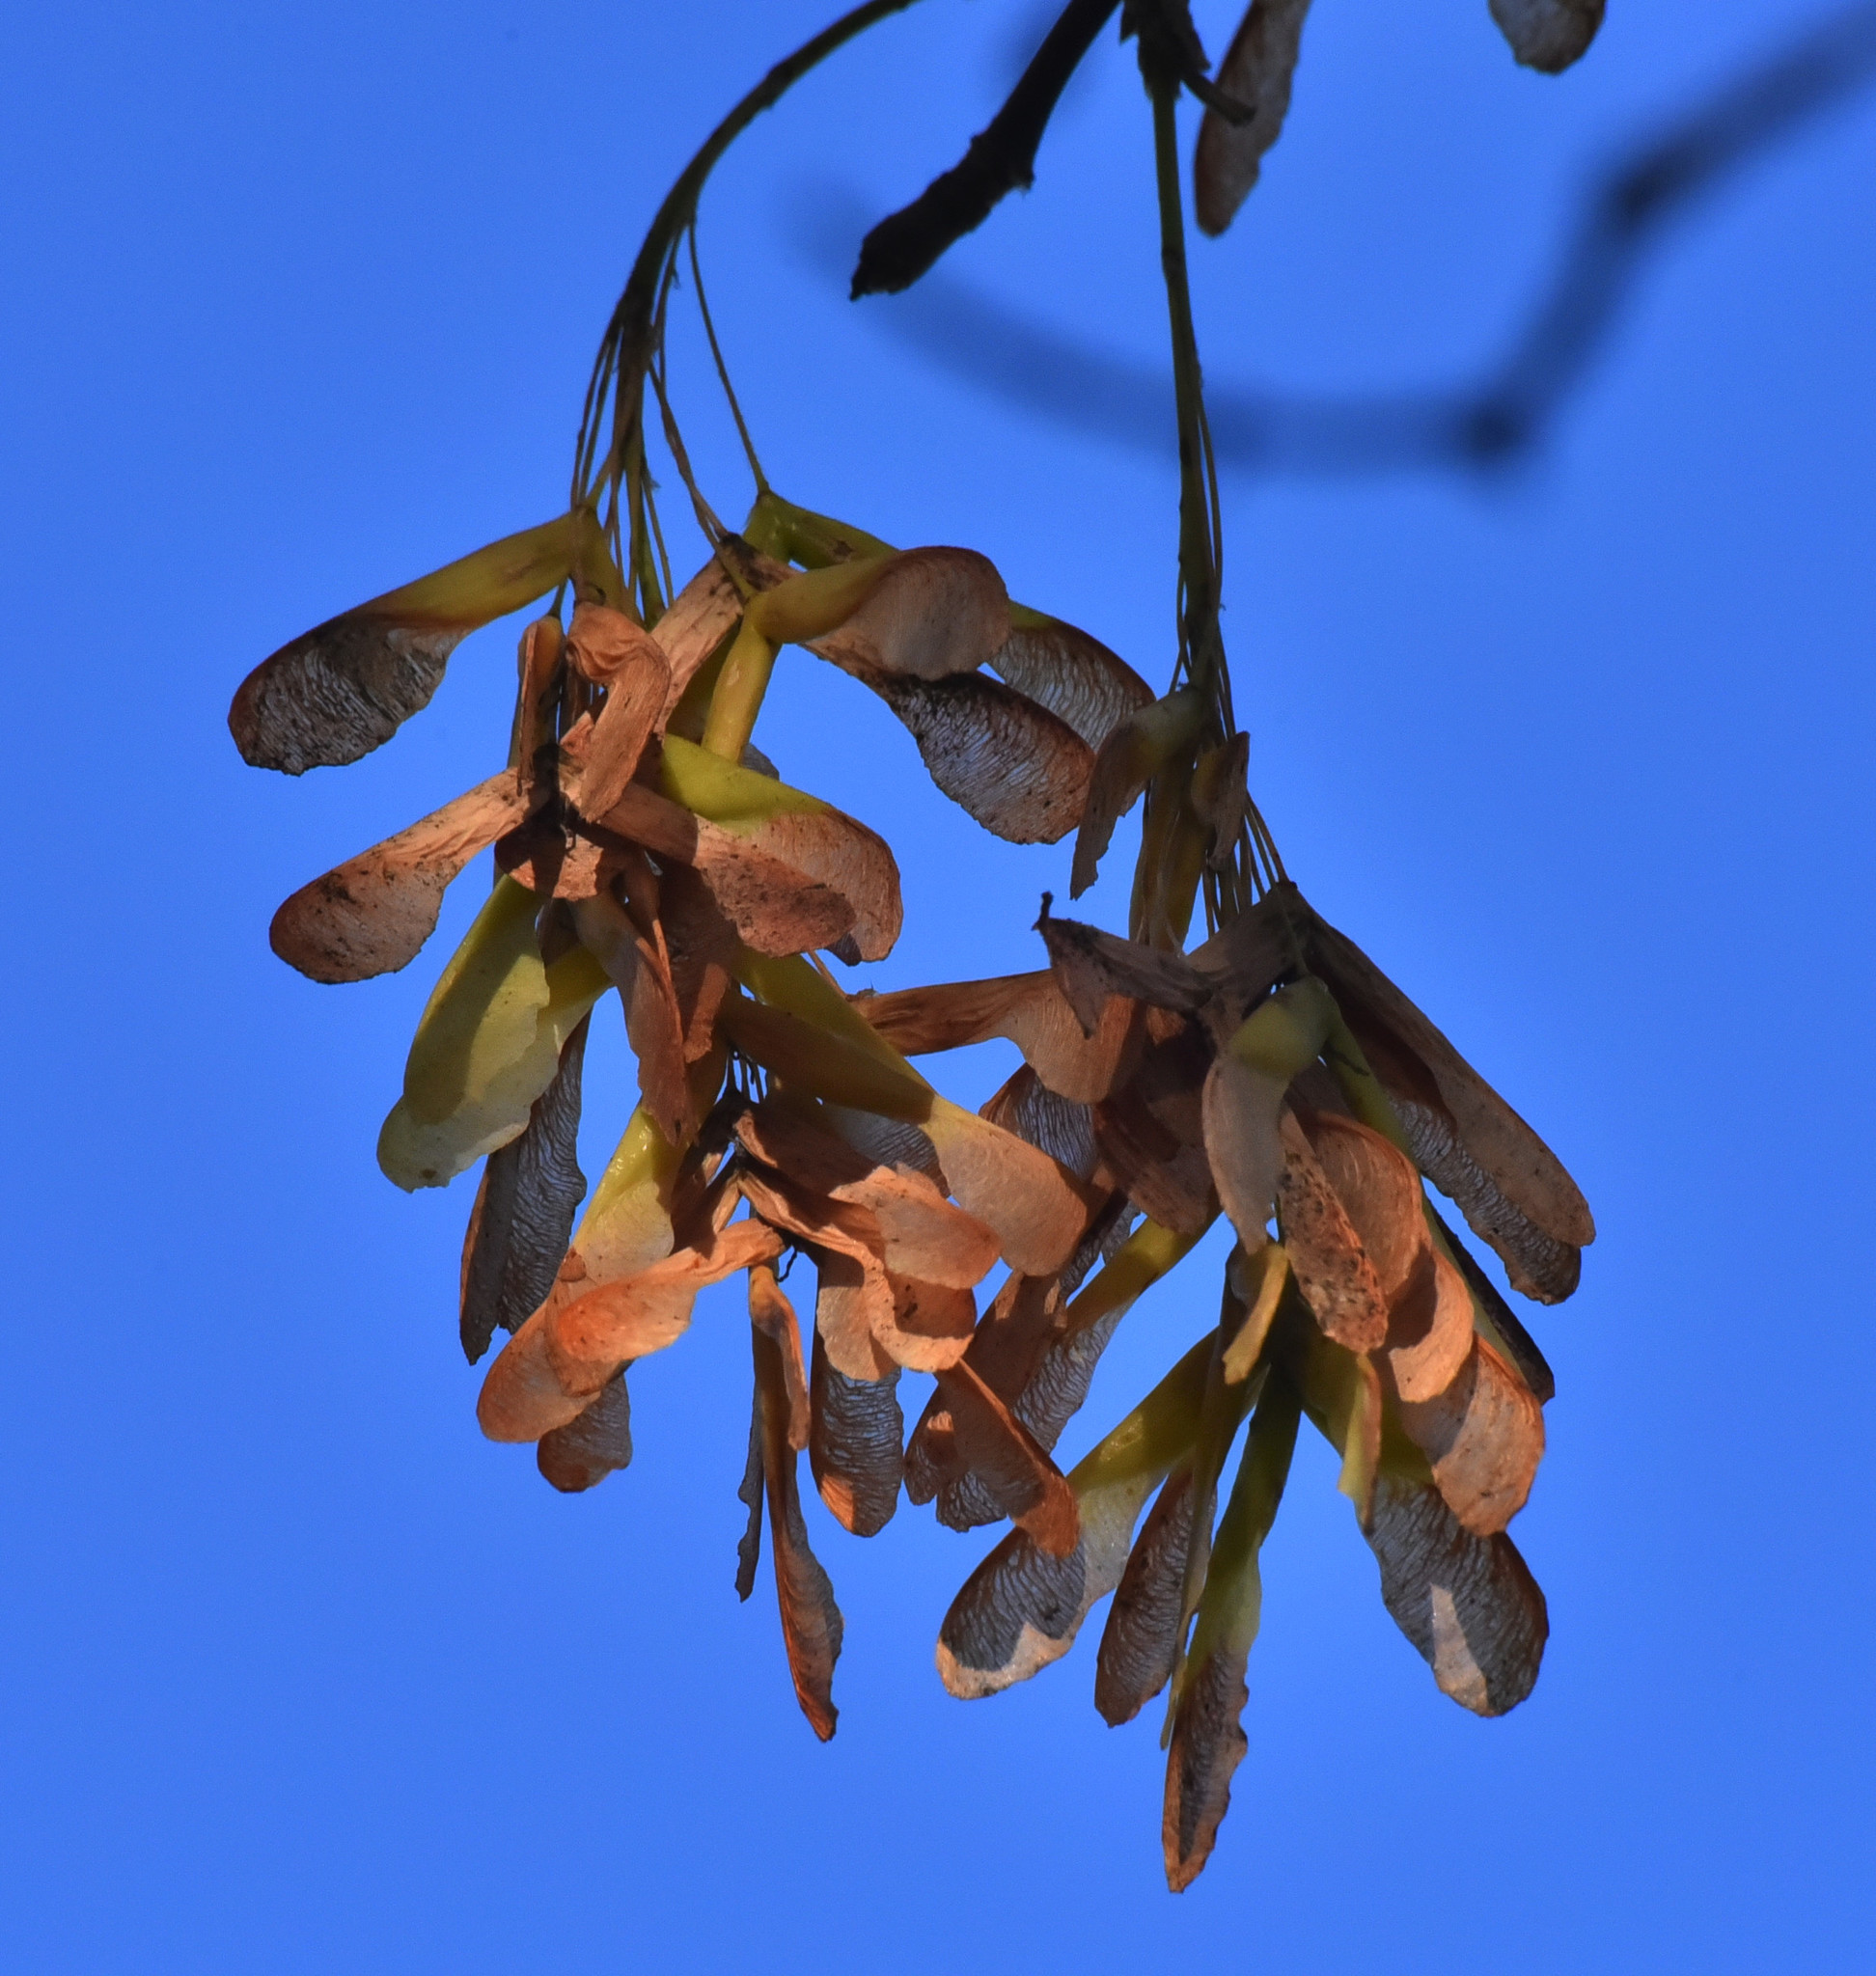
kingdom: Plantae
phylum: Tracheophyta
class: Magnoliopsida
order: Sapindales
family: Sapindaceae
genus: Acer
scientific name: Acer negundo
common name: Ashleaf maple
